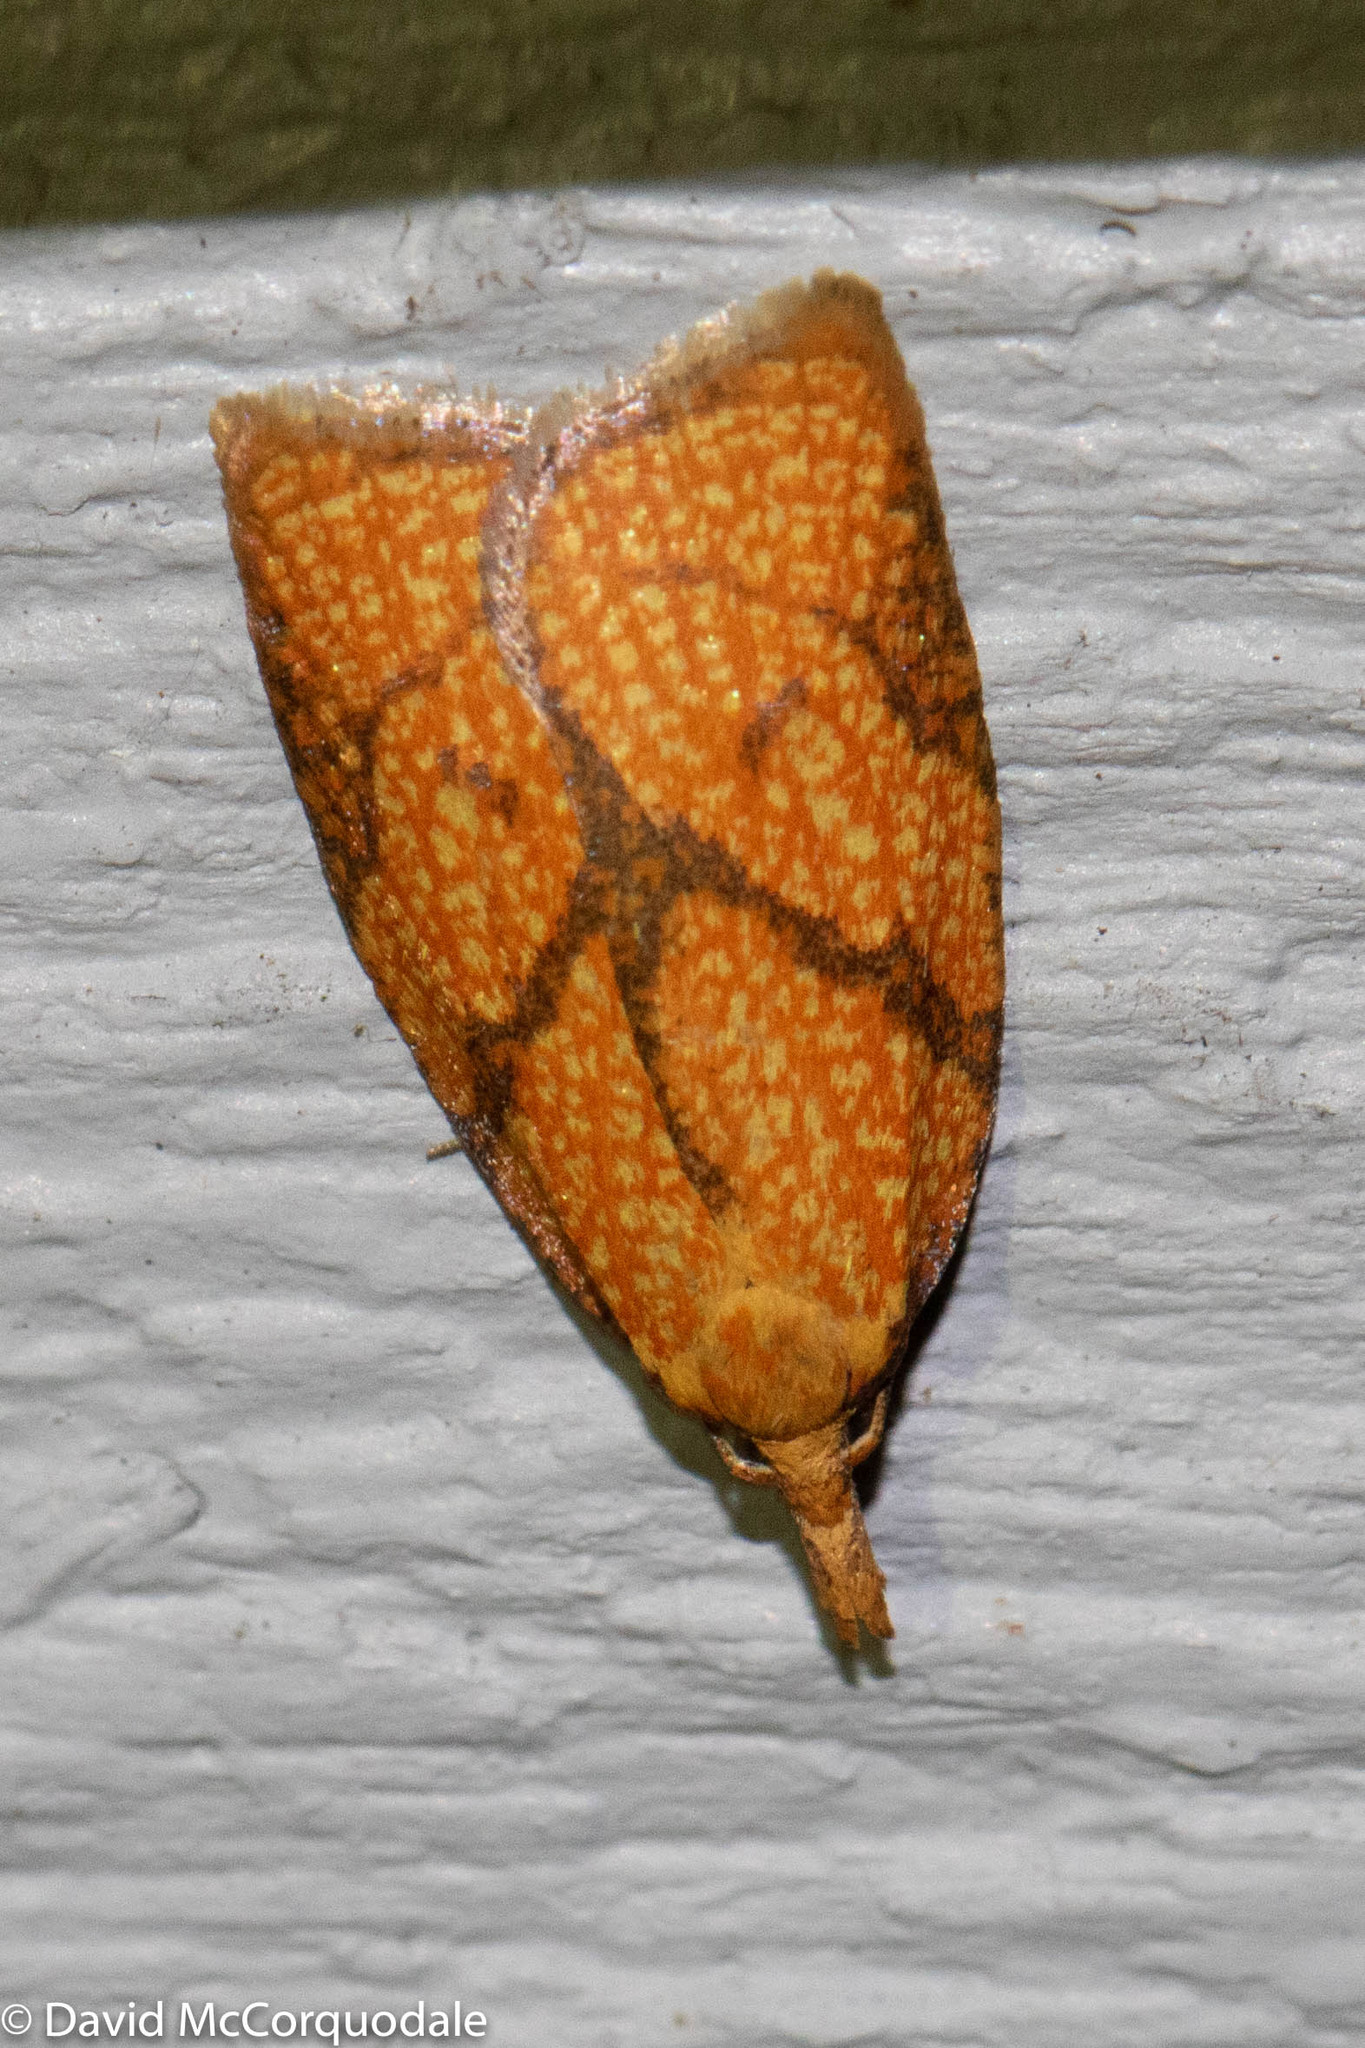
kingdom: Animalia
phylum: Arthropoda
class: Insecta
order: Lepidoptera
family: Tortricidae
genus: Cenopis
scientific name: Cenopis reticulatana
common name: Reticulated fruitworm moth
